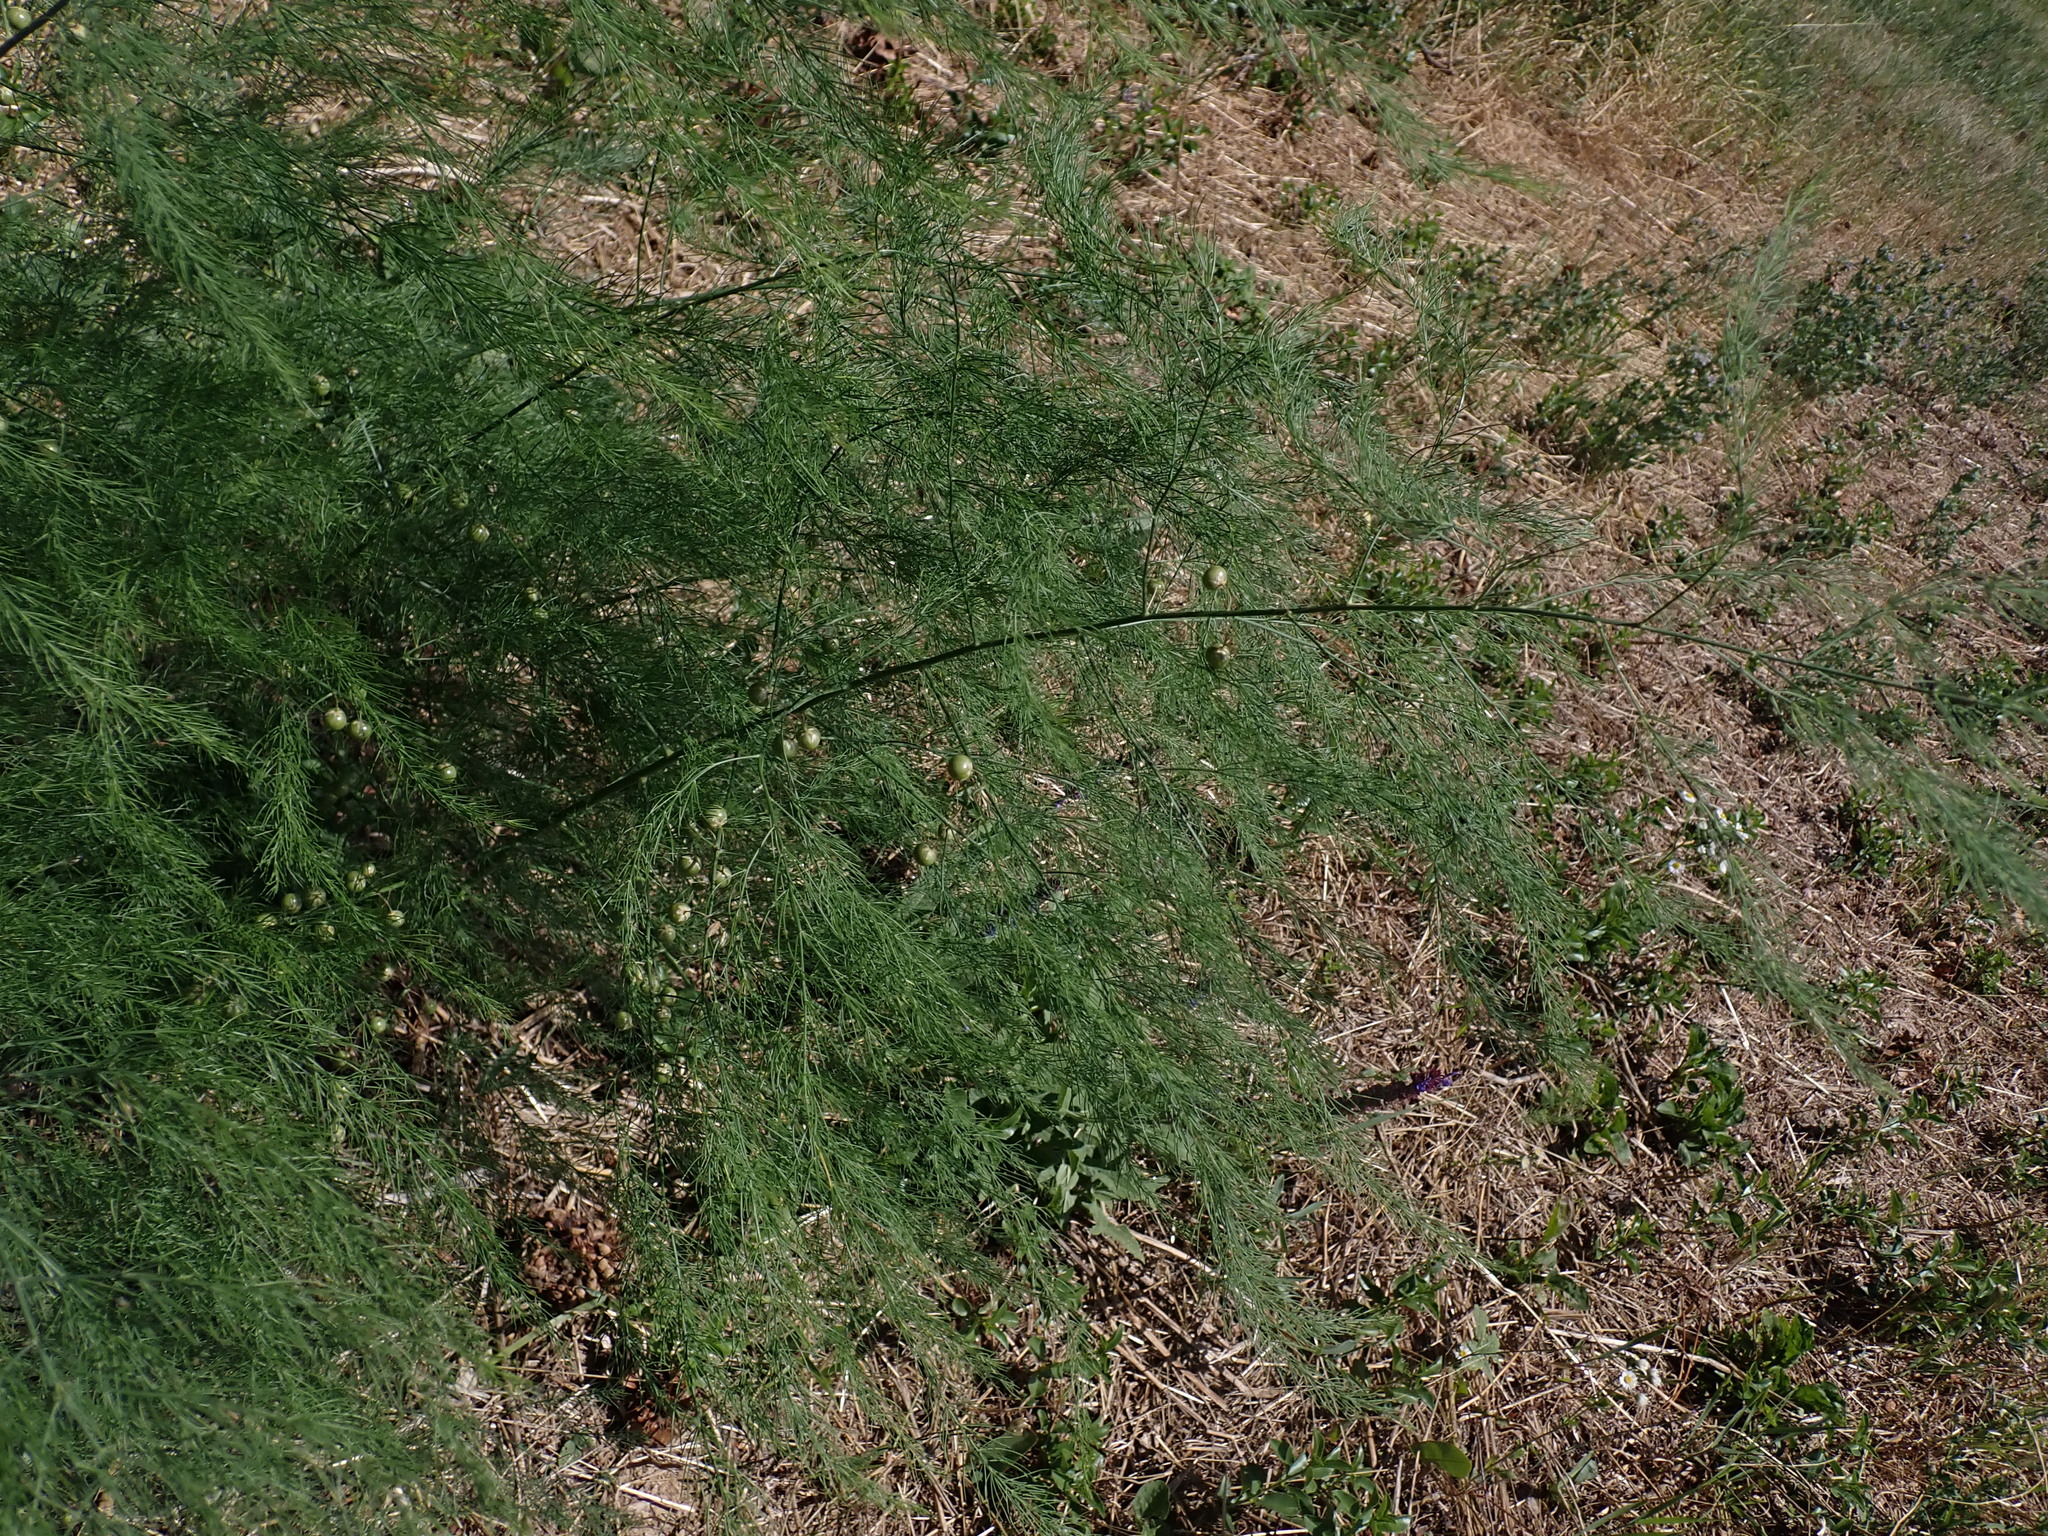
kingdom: Plantae
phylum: Tracheophyta
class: Liliopsida
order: Asparagales
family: Asparagaceae
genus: Asparagus
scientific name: Asparagus officinalis
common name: Garden asparagus
